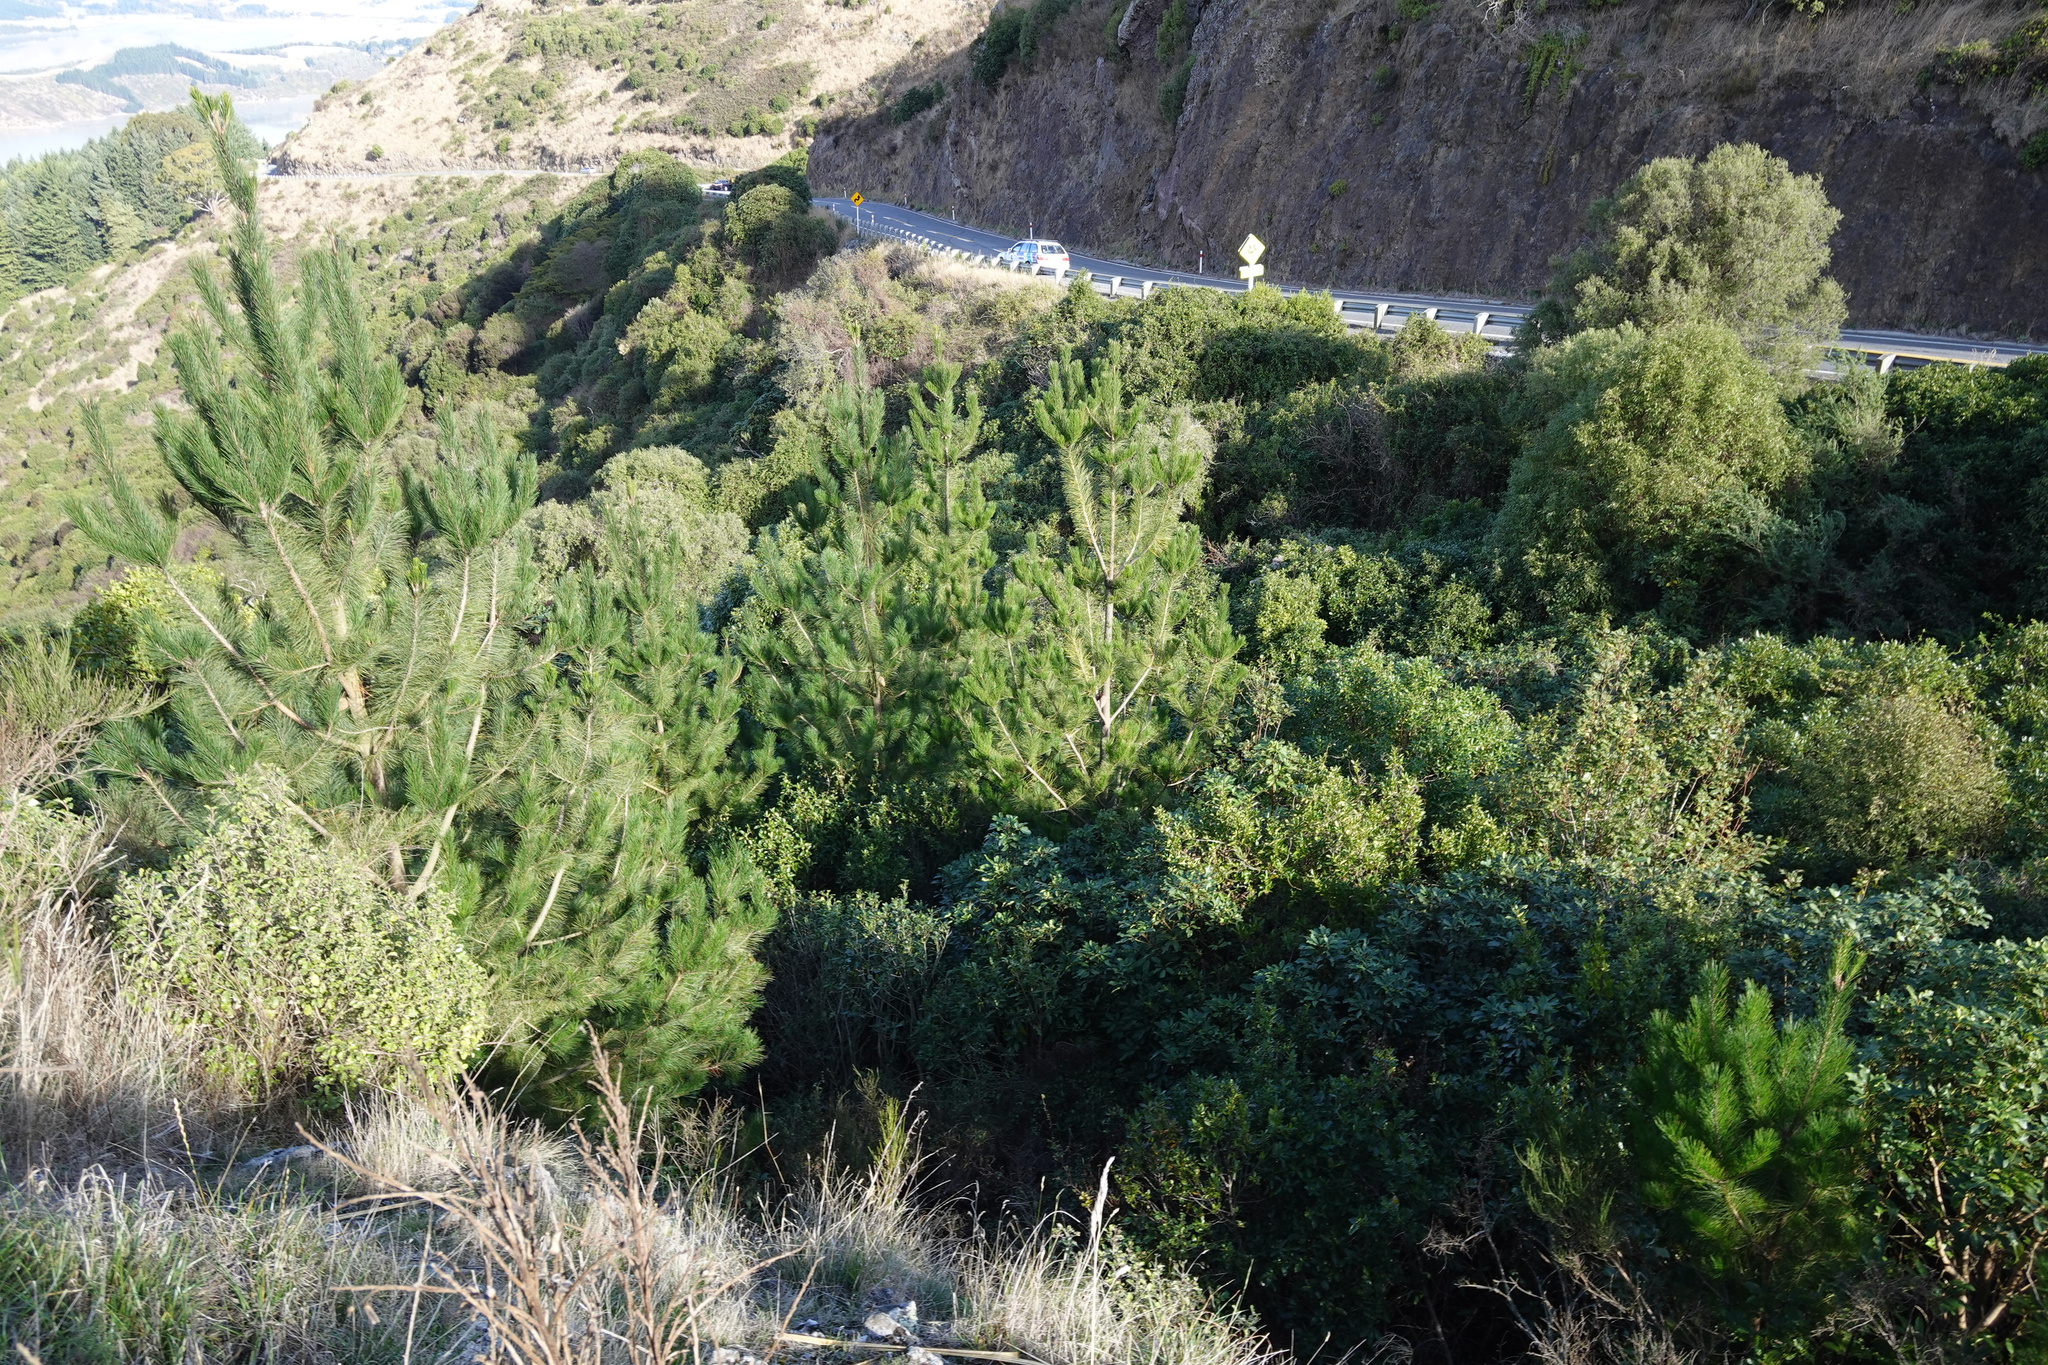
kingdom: Plantae
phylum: Tracheophyta
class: Pinopsida
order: Pinales
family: Pinaceae
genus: Pinus
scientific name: Pinus radiata
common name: Monterey pine
